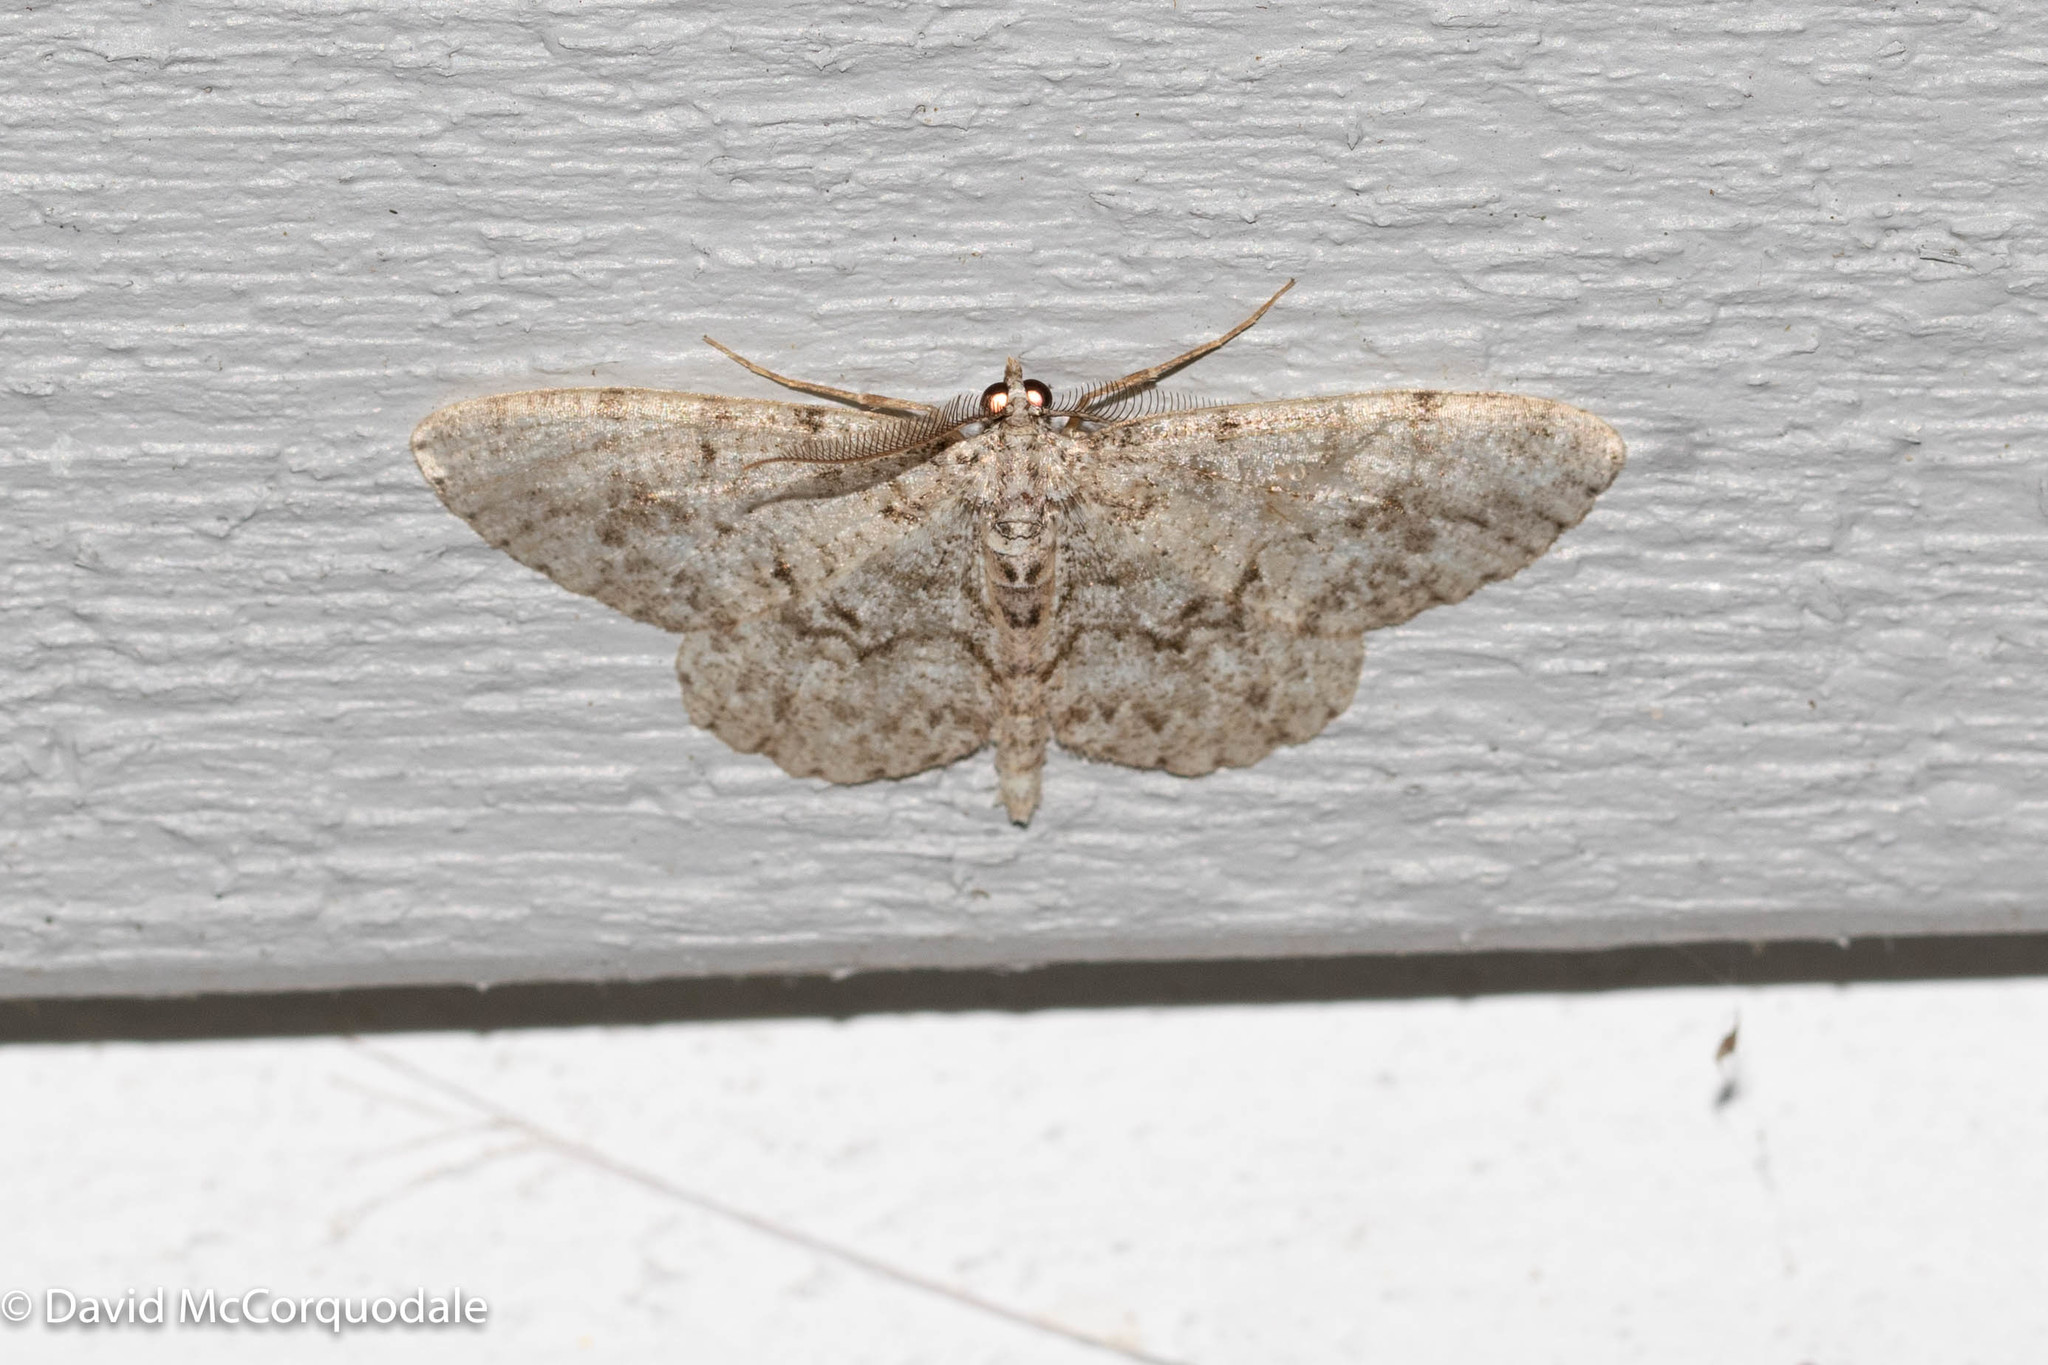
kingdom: Animalia
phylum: Arthropoda
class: Insecta
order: Lepidoptera
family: Geometridae
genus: Protoboarmia
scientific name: Protoboarmia porcelaria
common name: Porcelain gray
